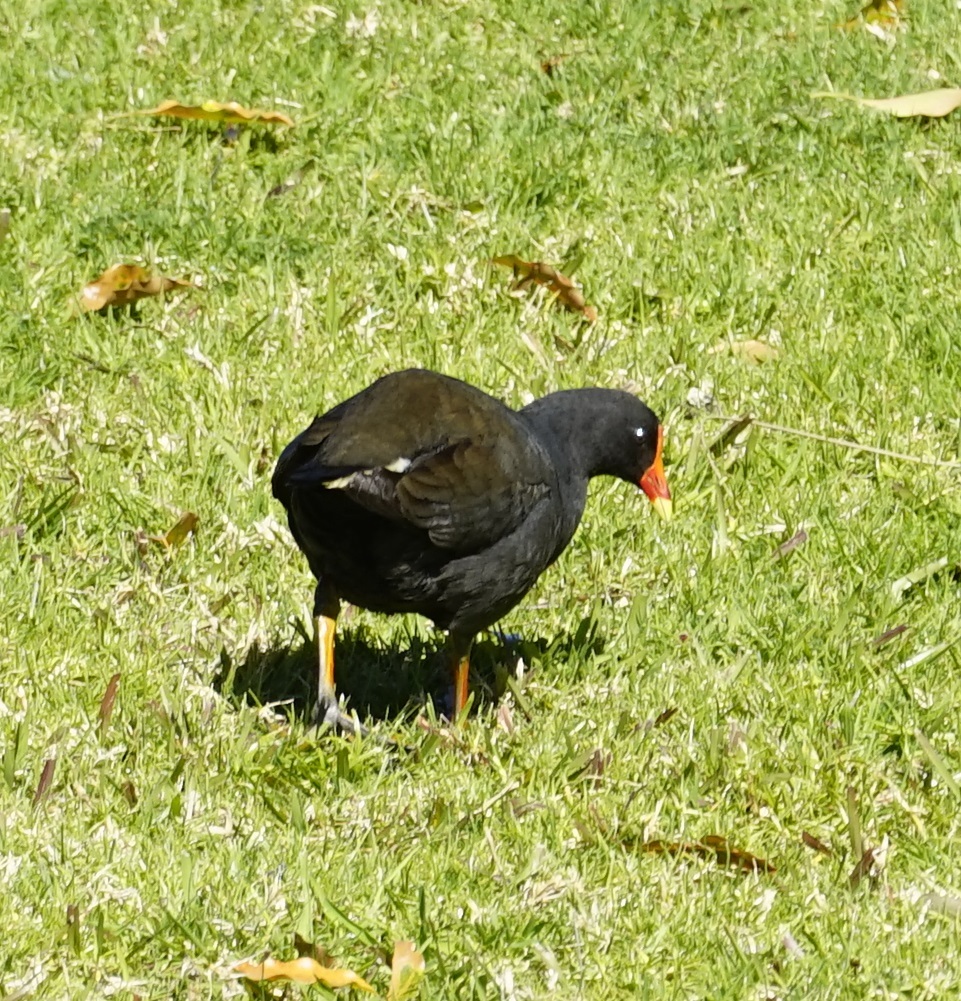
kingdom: Animalia
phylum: Chordata
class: Aves
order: Gruiformes
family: Rallidae
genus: Gallinula
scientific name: Gallinula tenebrosa
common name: Dusky moorhen
